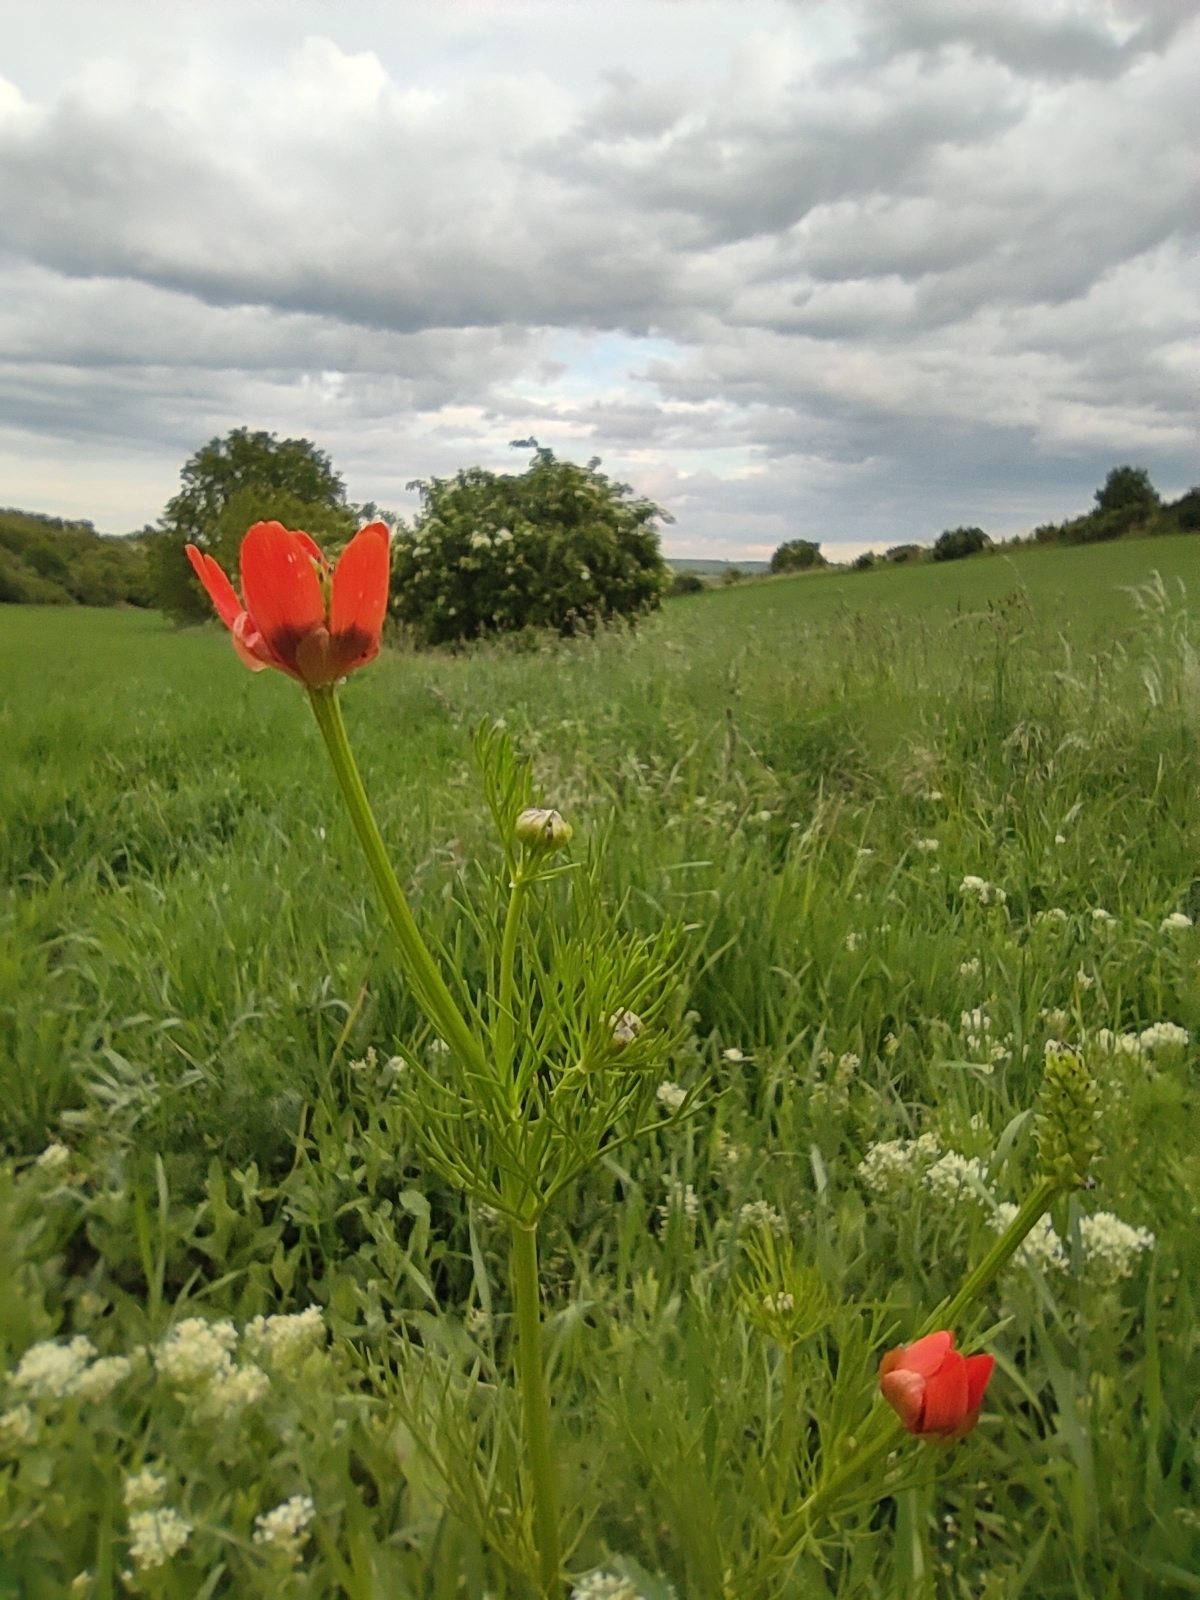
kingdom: Plantae
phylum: Tracheophyta
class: Magnoliopsida
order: Ranunculales
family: Ranunculaceae
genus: Adonis
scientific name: Adonis aestivalis
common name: Summer pheasant's-eye
